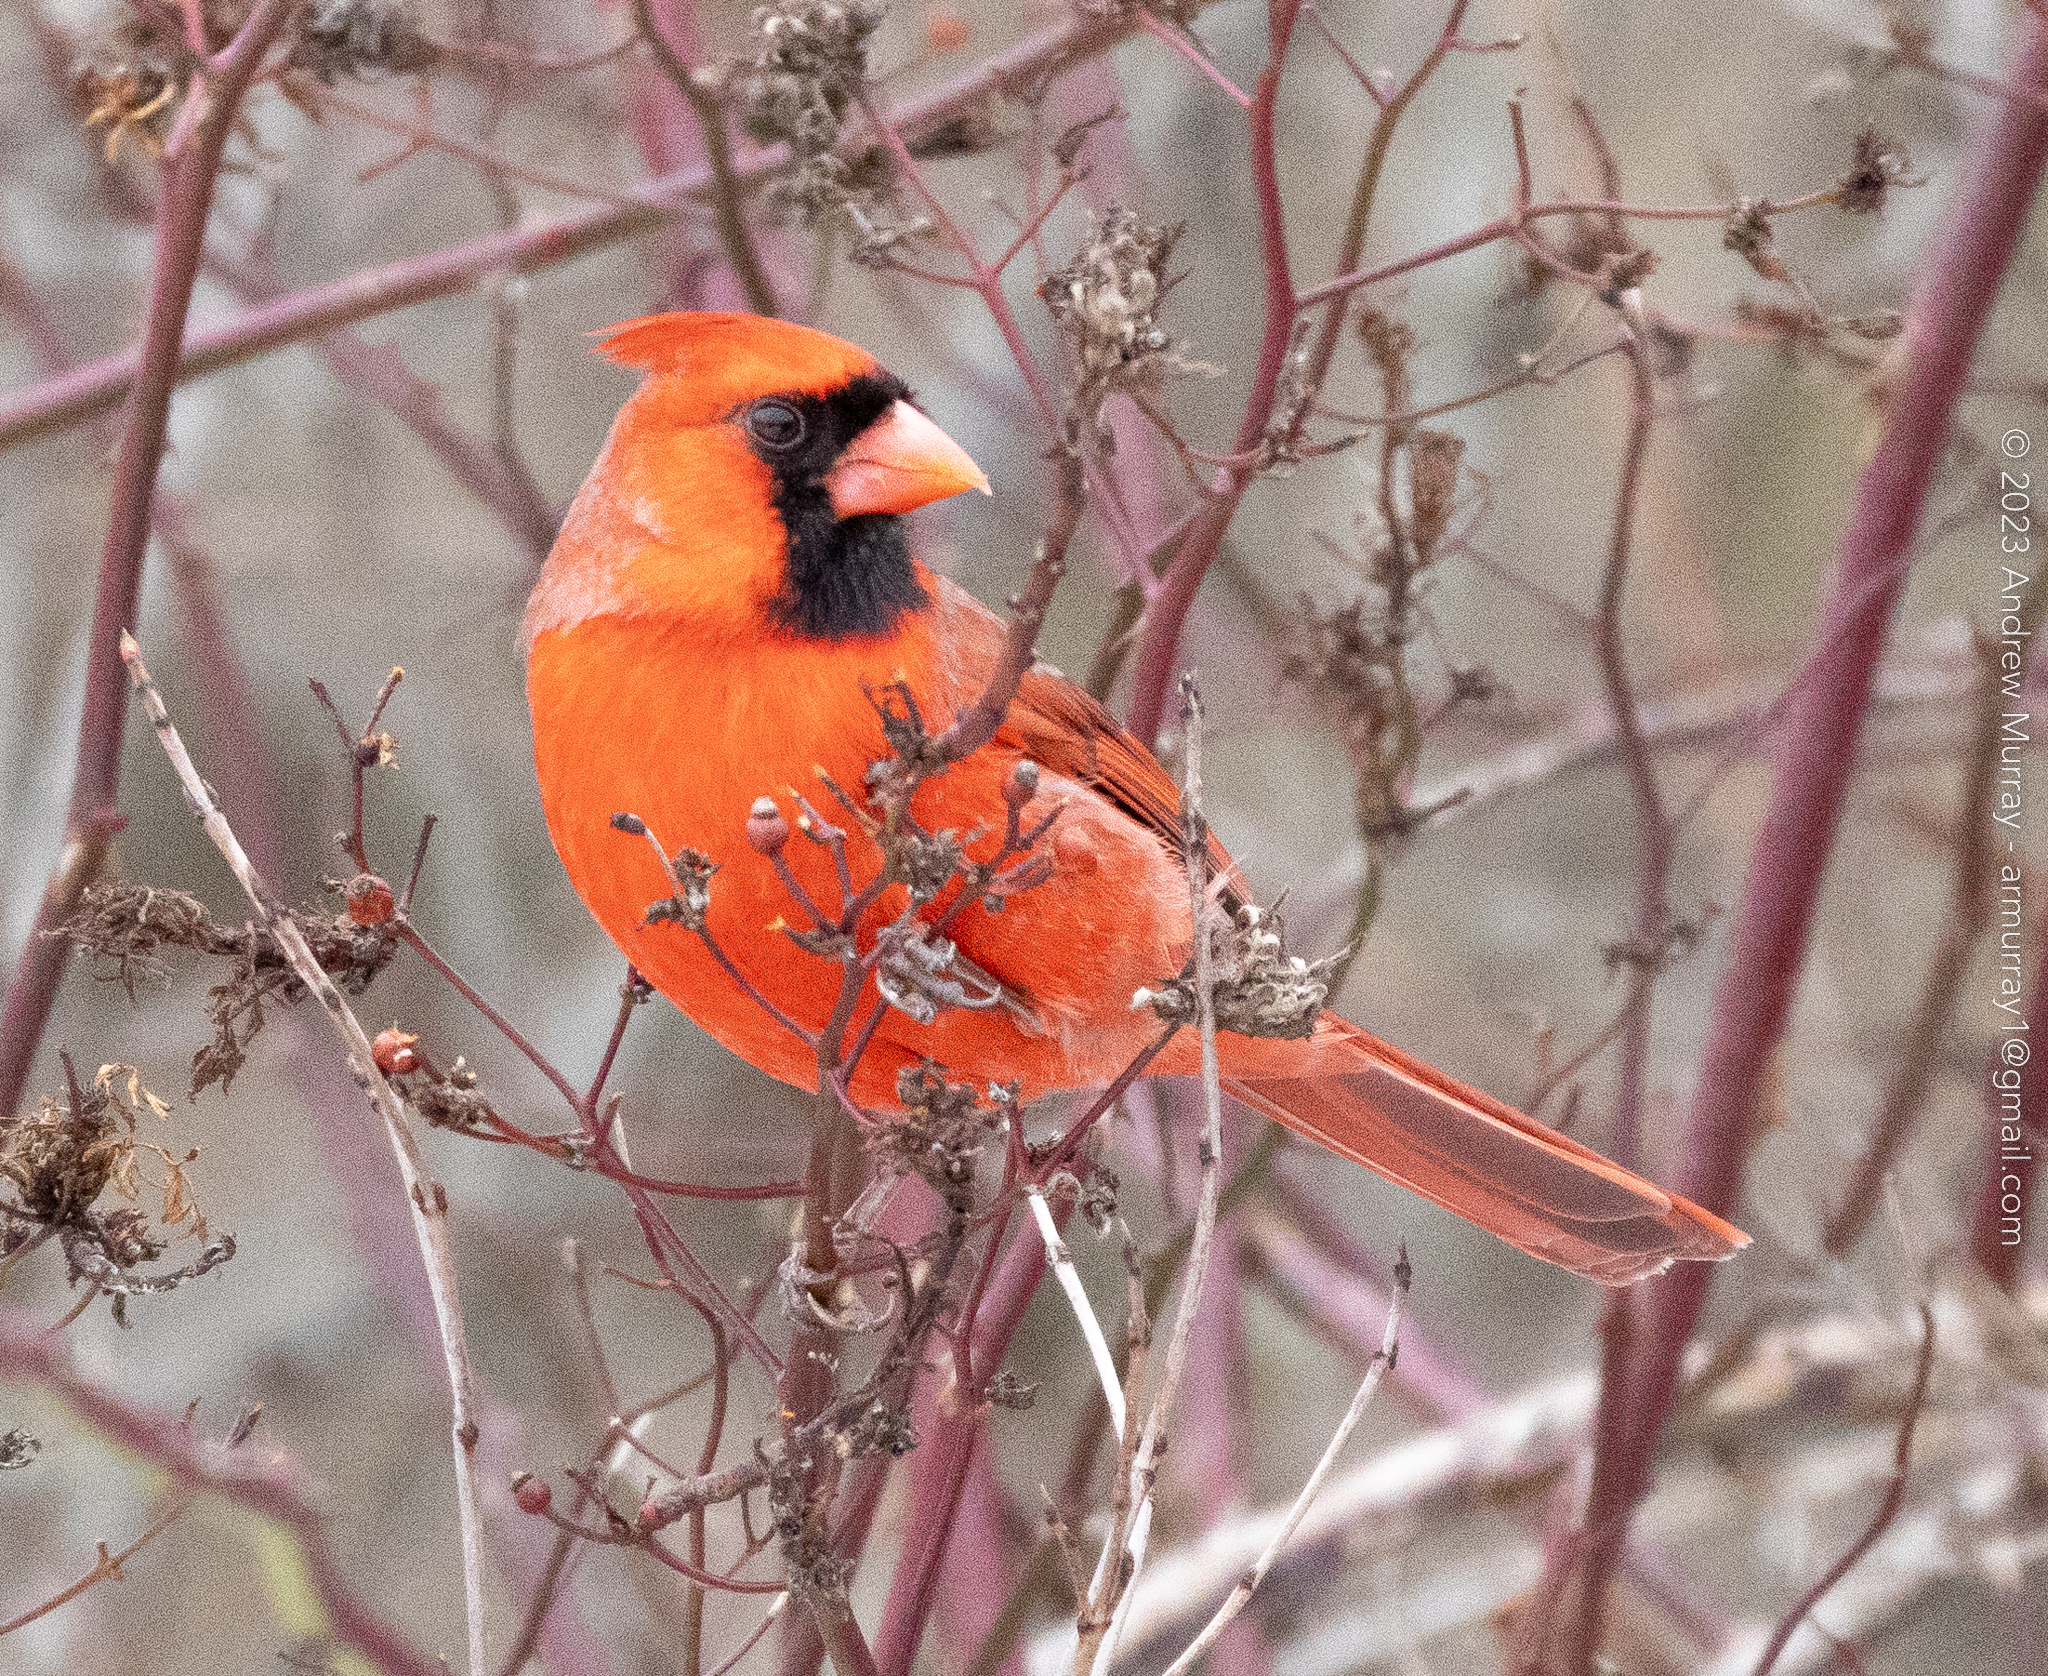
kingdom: Animalia
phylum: Chordata
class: Aves
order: Passeriformes
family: Cardinalidae
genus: Cardinalis
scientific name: Cardinalis cardinalis
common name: Northern cardinal
